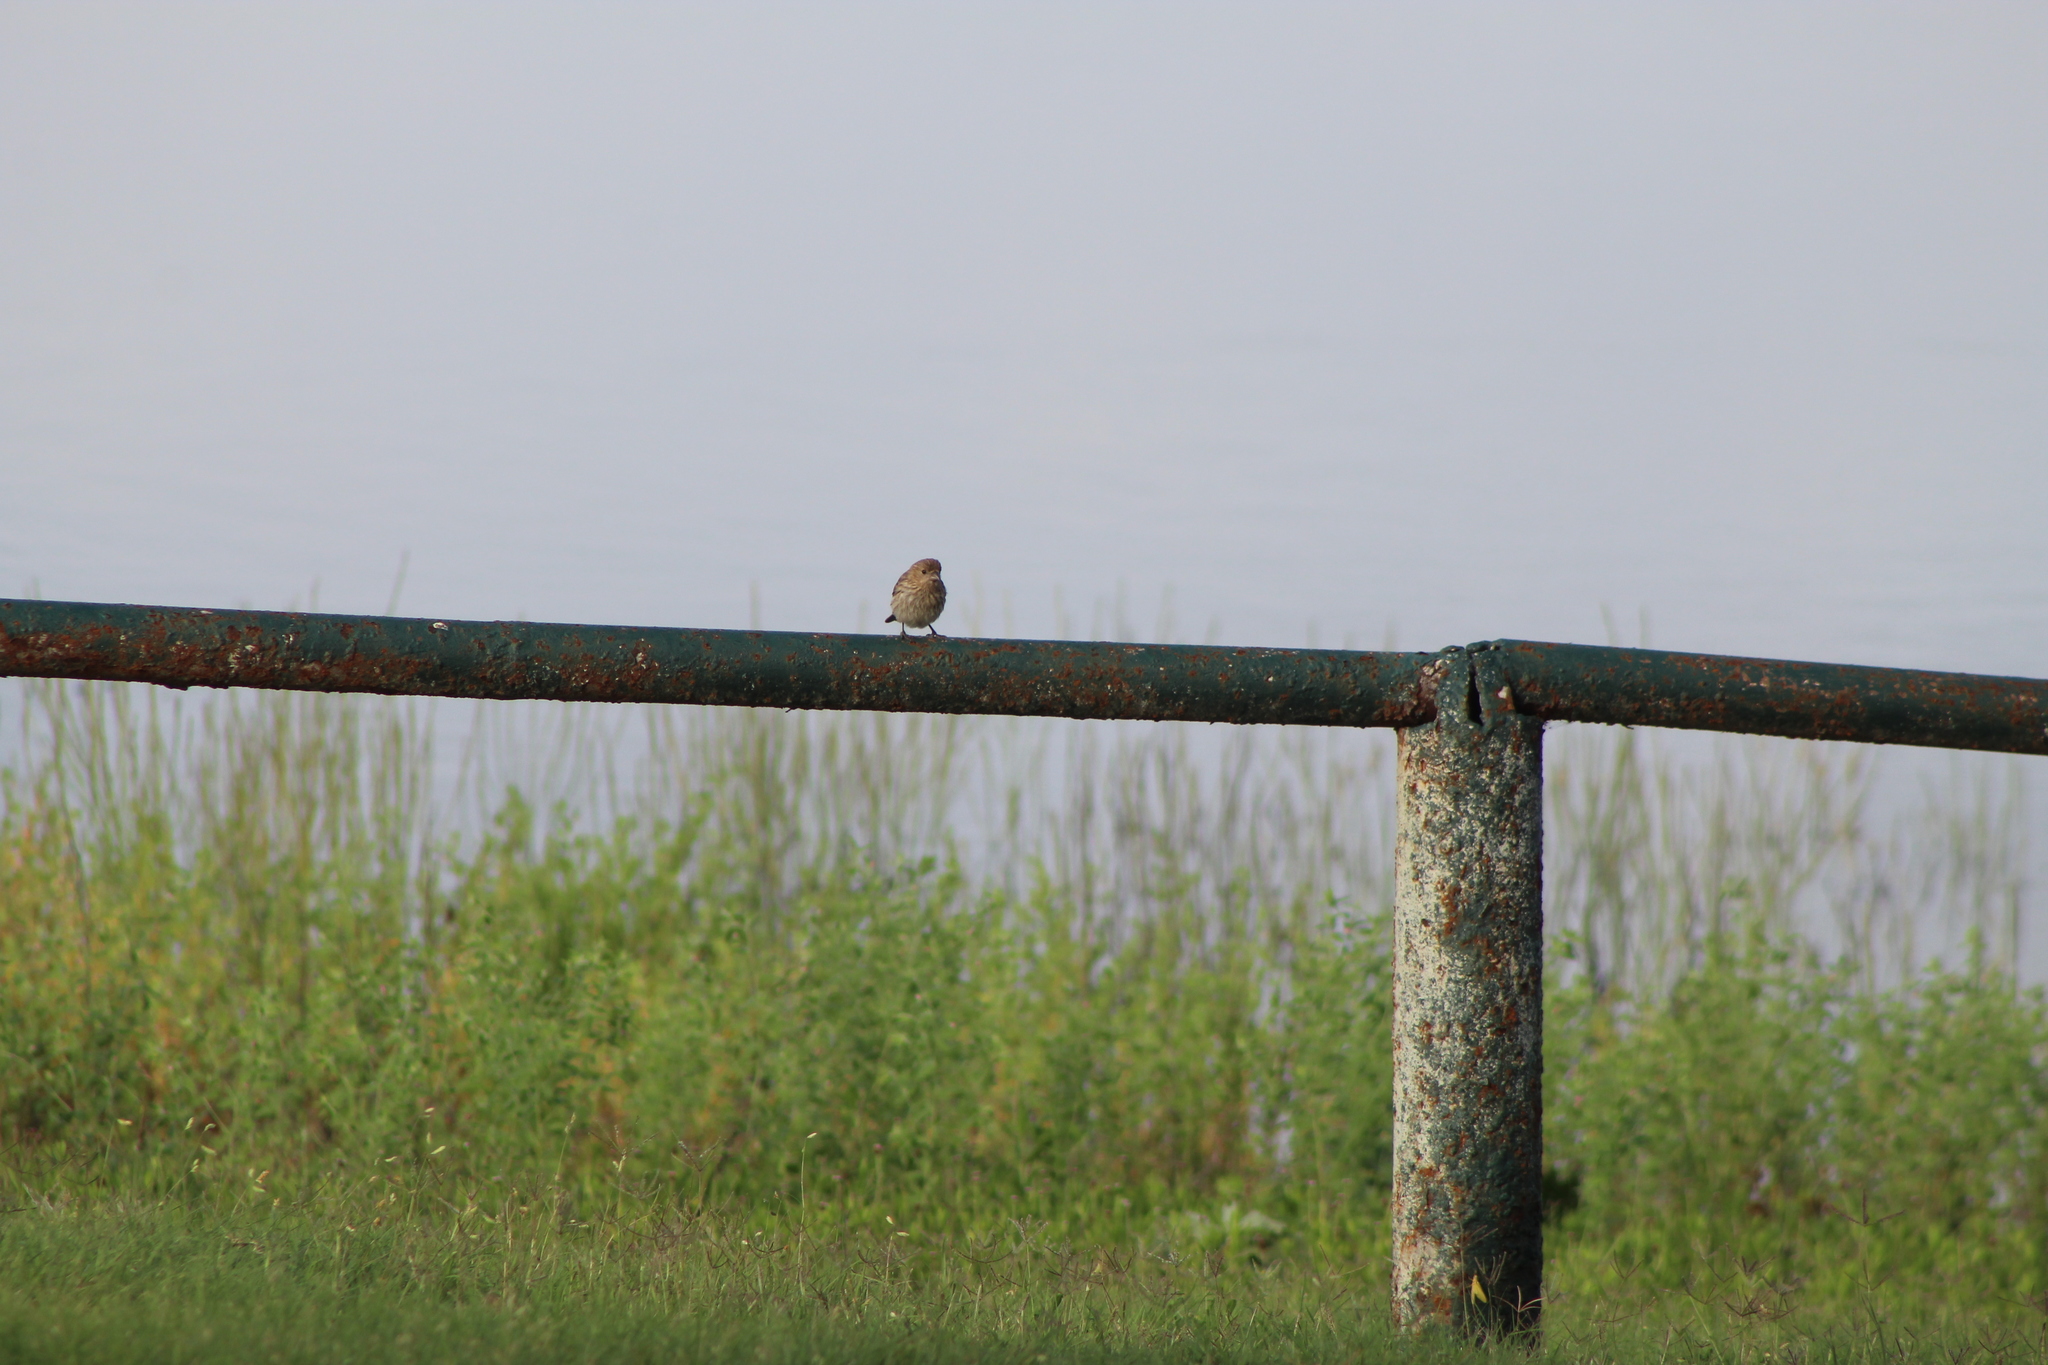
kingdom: Animalia
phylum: Chordata
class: Aves
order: Passeriformes
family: Fringillidae
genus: Haemorhous
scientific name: Haemorhous mexicanus
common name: House finch
